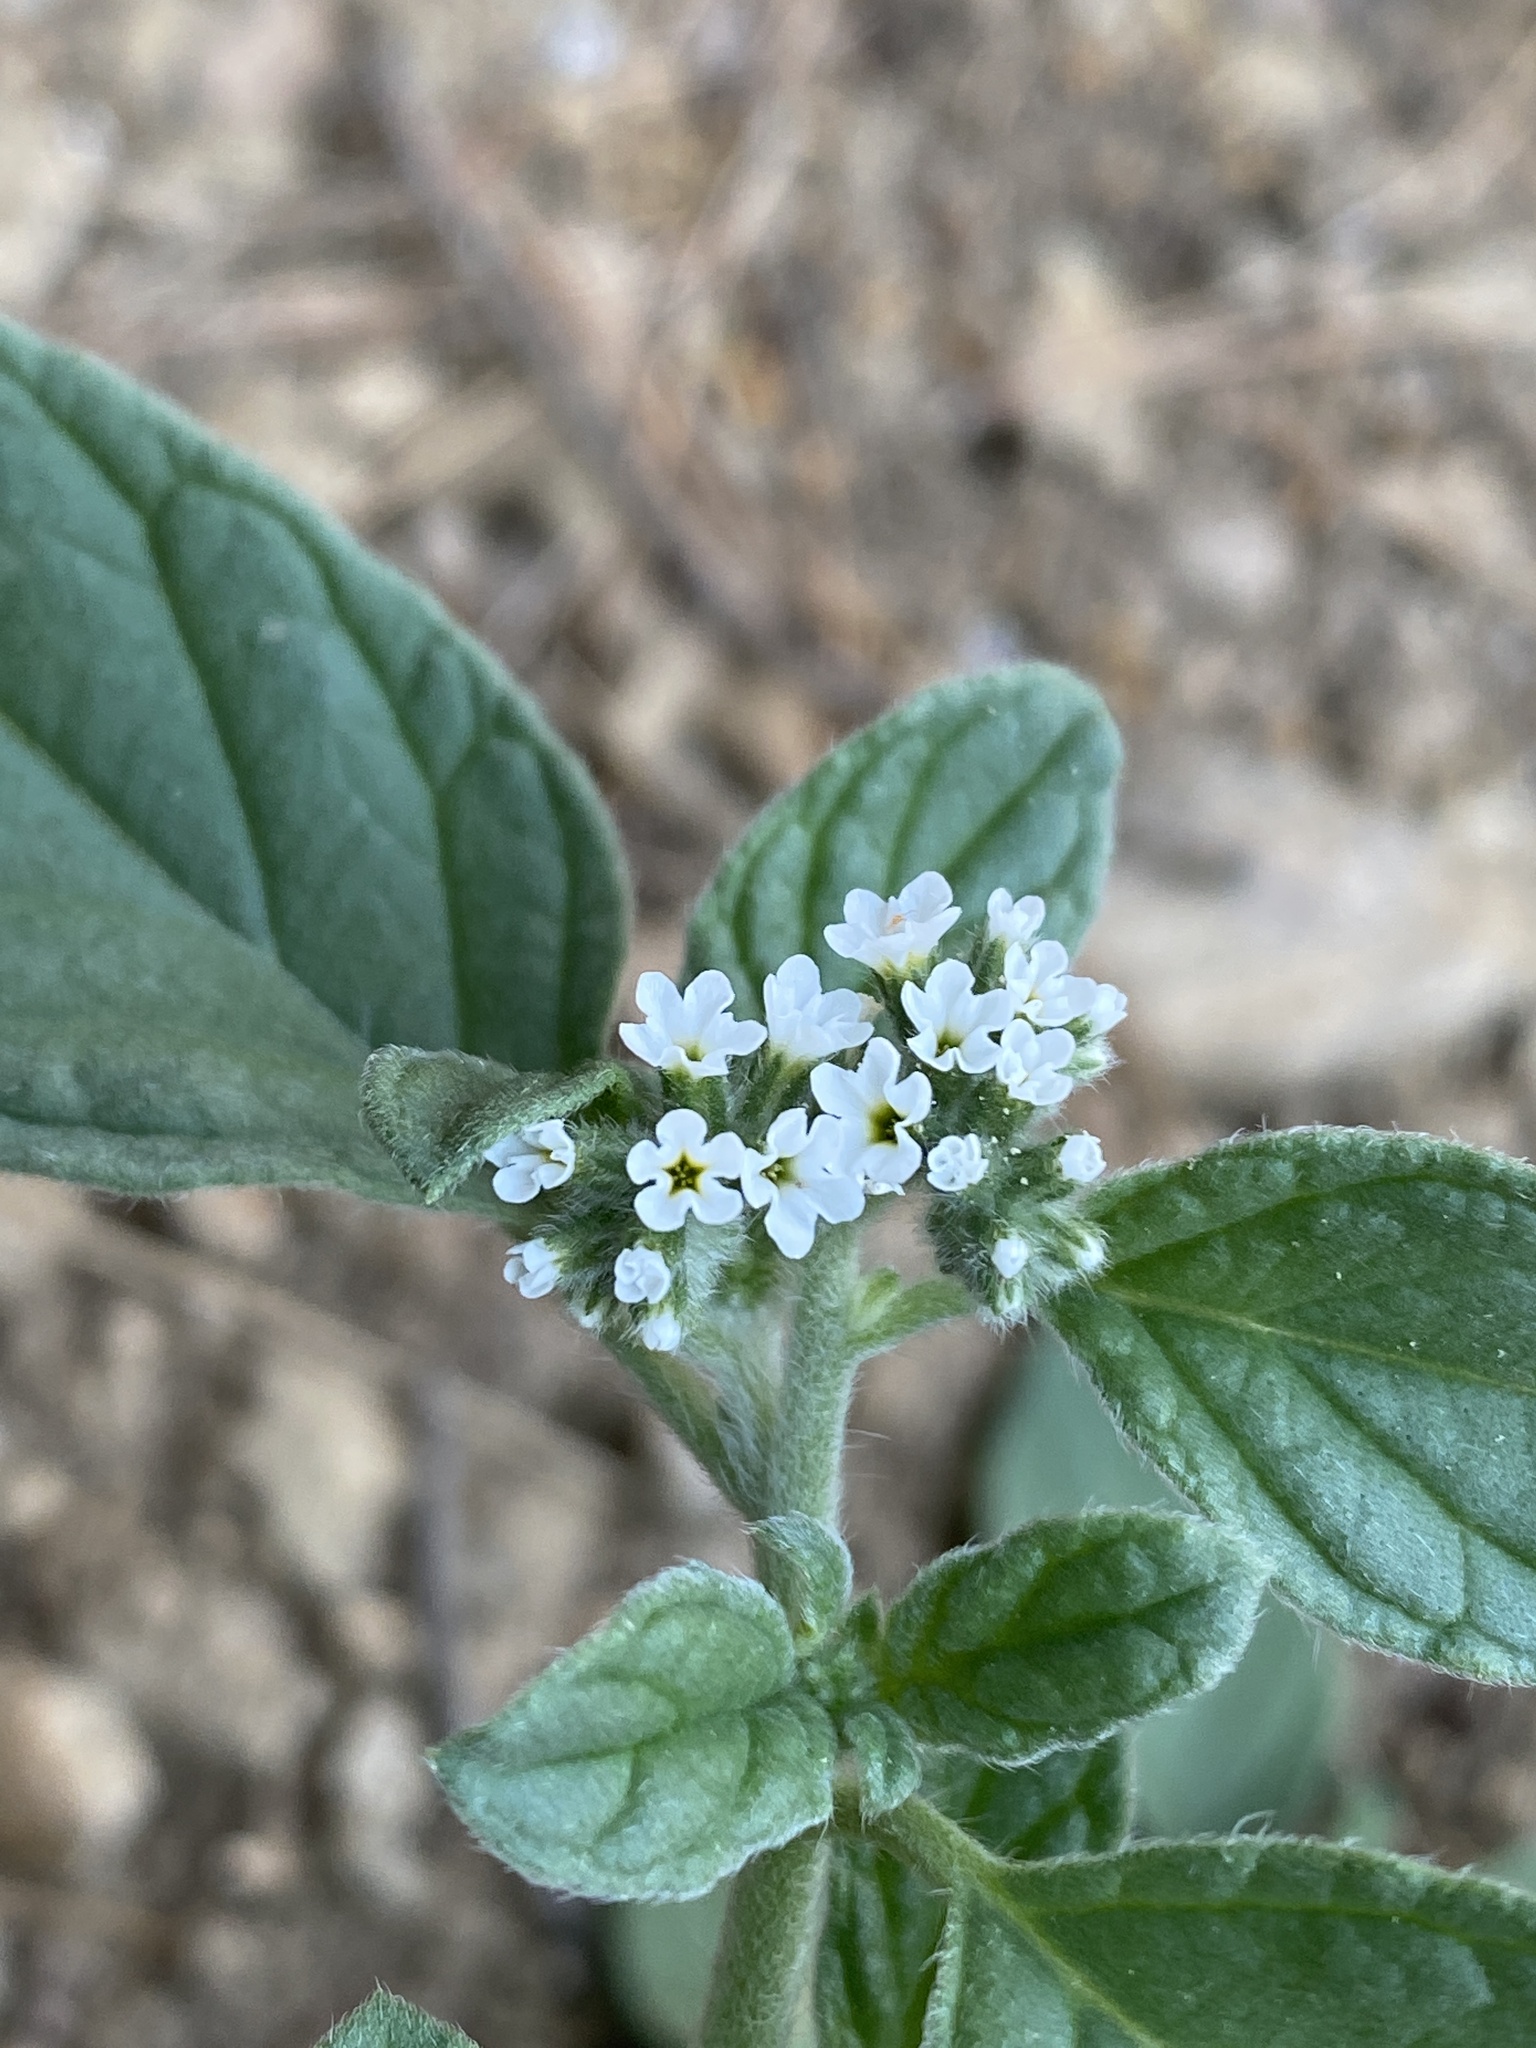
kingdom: Plantae
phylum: Tracheophyta
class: Magnoliopsida
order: Boraginales
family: Heliotropiaceae
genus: Heliotropium
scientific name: Heliotropium europaeum
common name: European heliotrope
